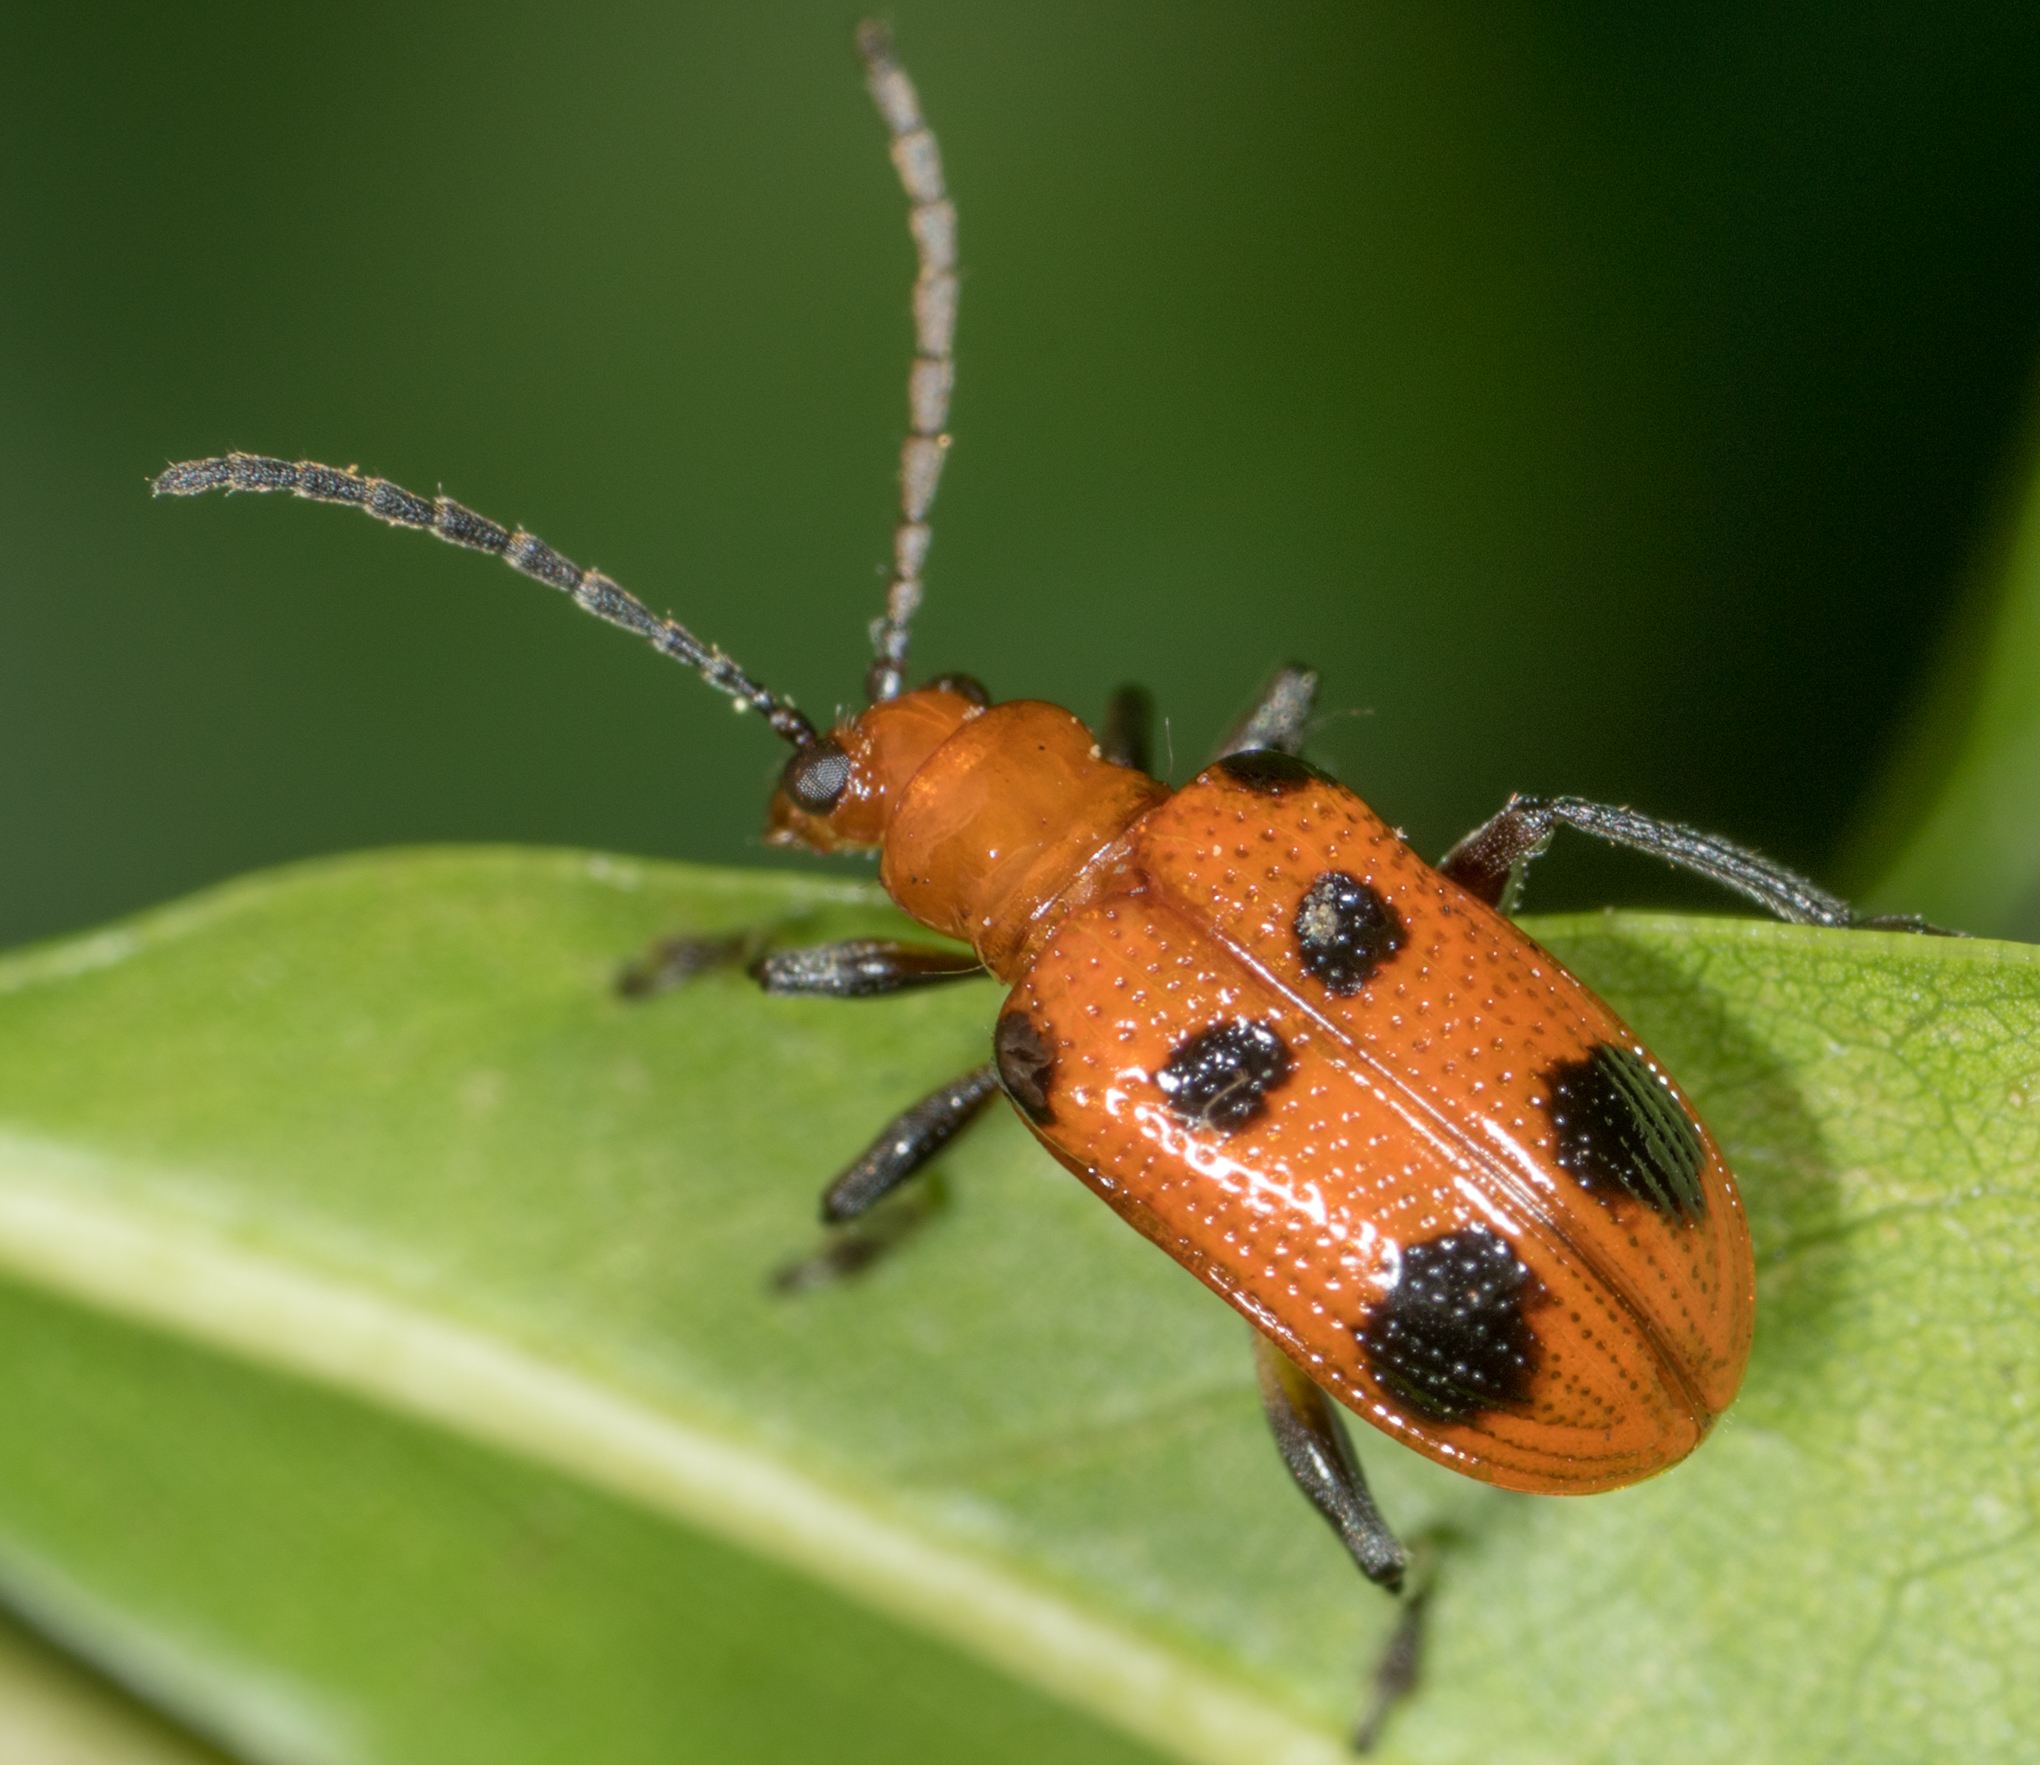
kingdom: Animalia
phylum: Arthropoda
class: Insecta
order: Coleoptera
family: Chrysomelidae
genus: Neolema
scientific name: Neolema sexpunctata
